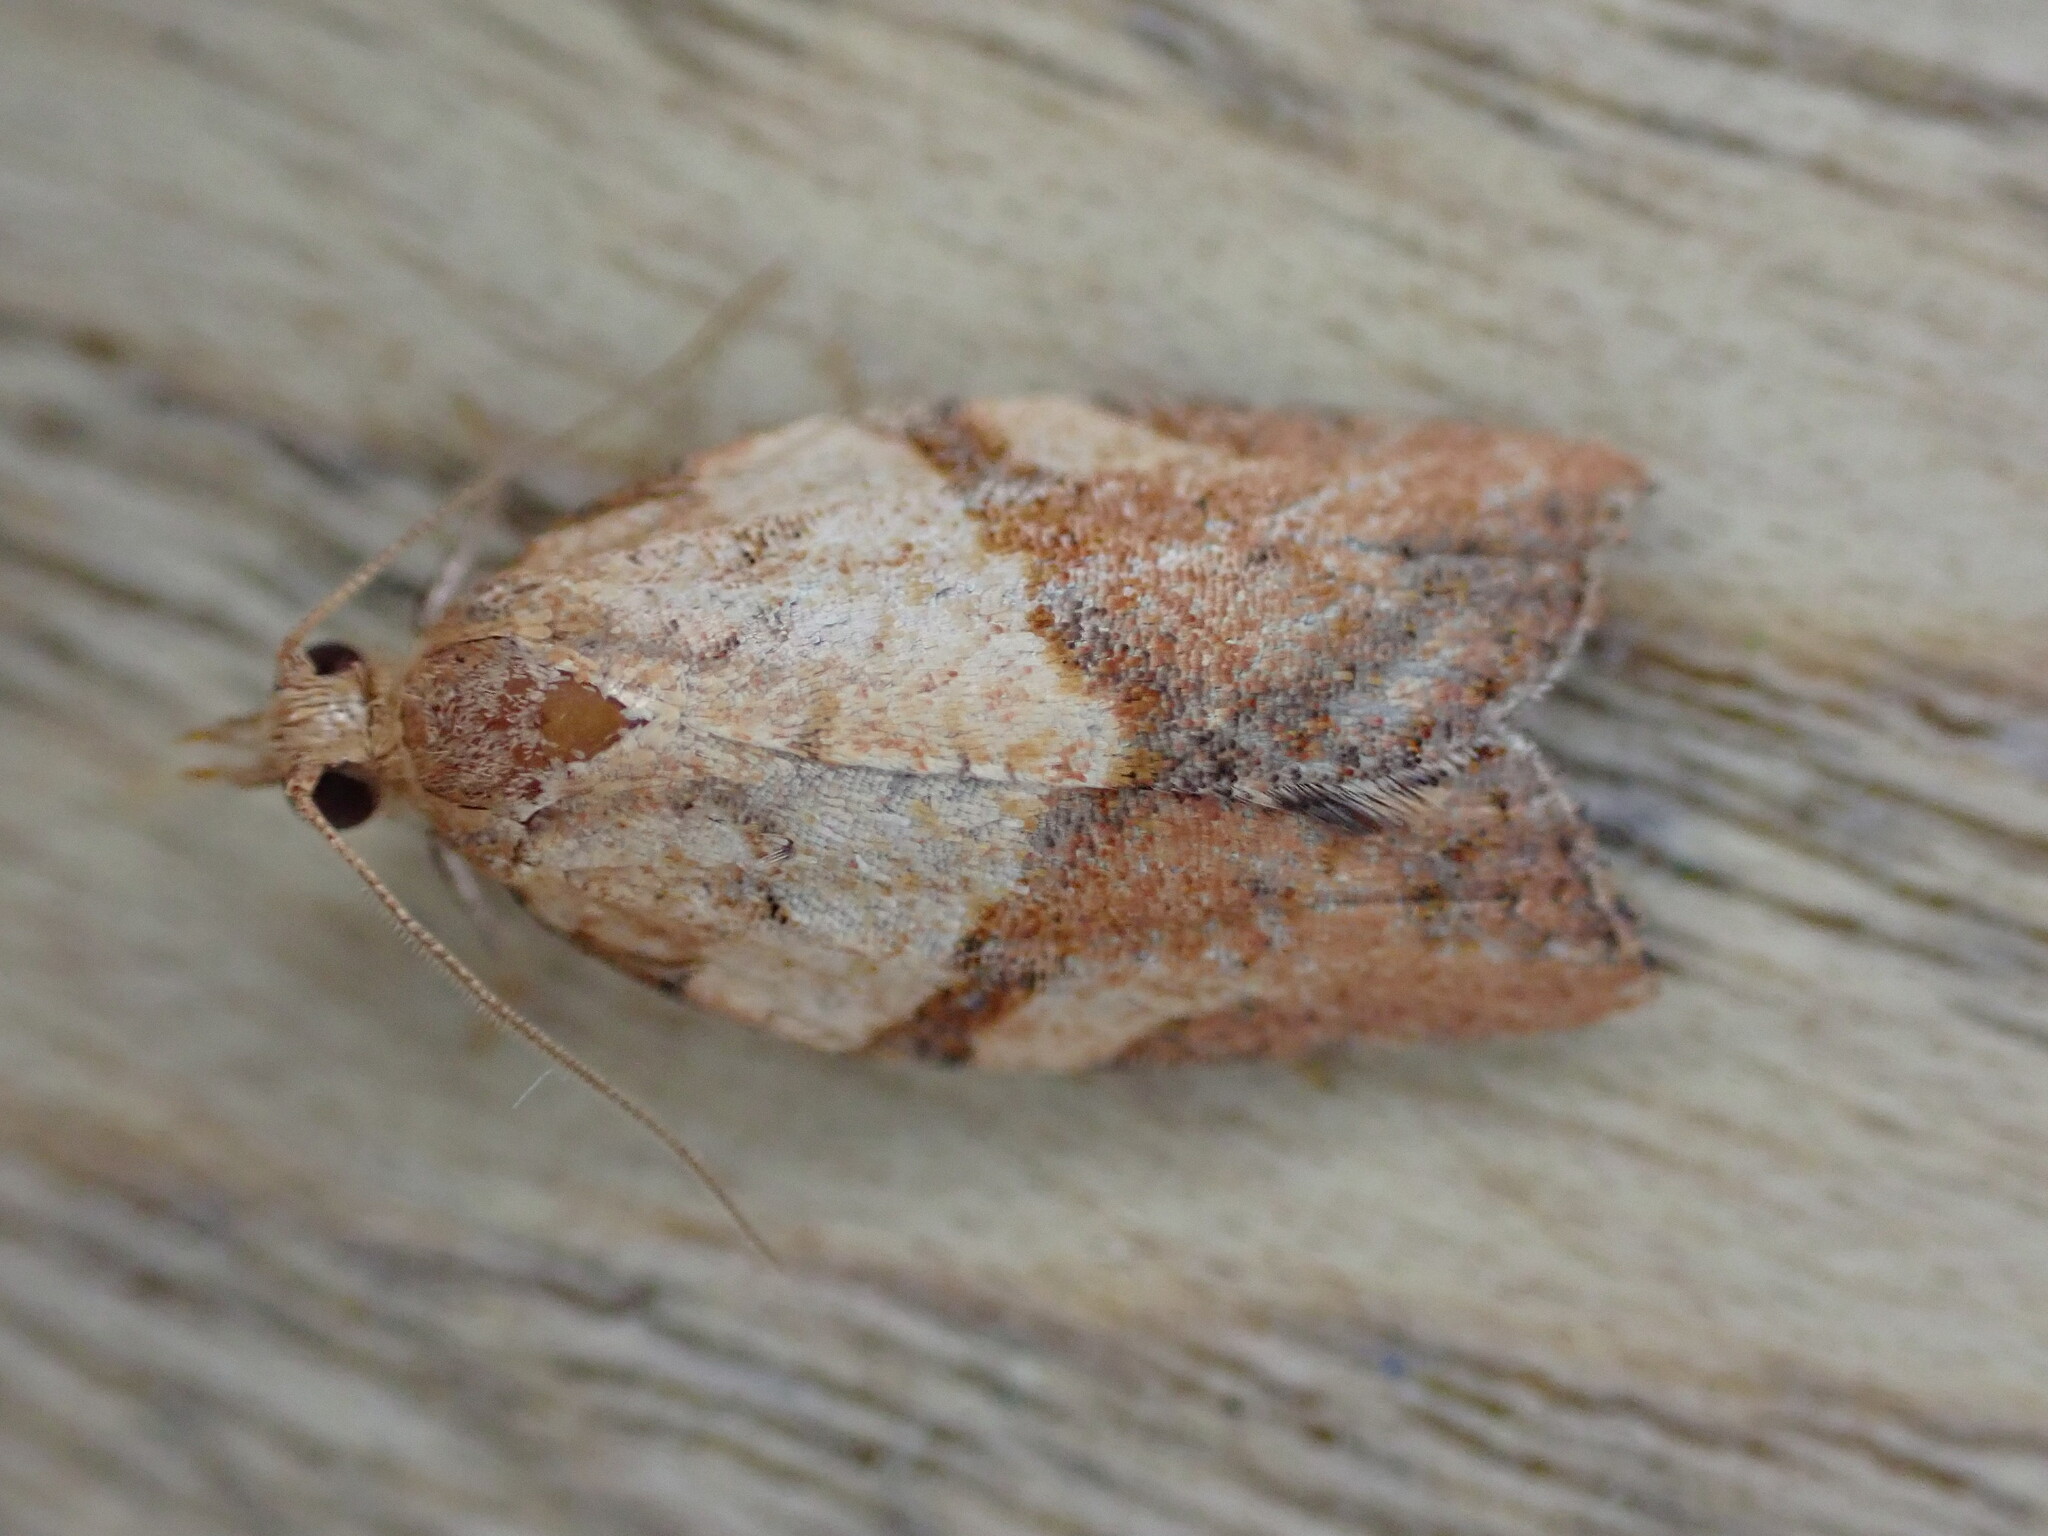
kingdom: Animalia
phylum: Arthropoda
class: Insecta
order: Lepidoptera
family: Tortricidae
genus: Epiphyas
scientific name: Epiphyas postvittana
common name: Light brown apple moth
